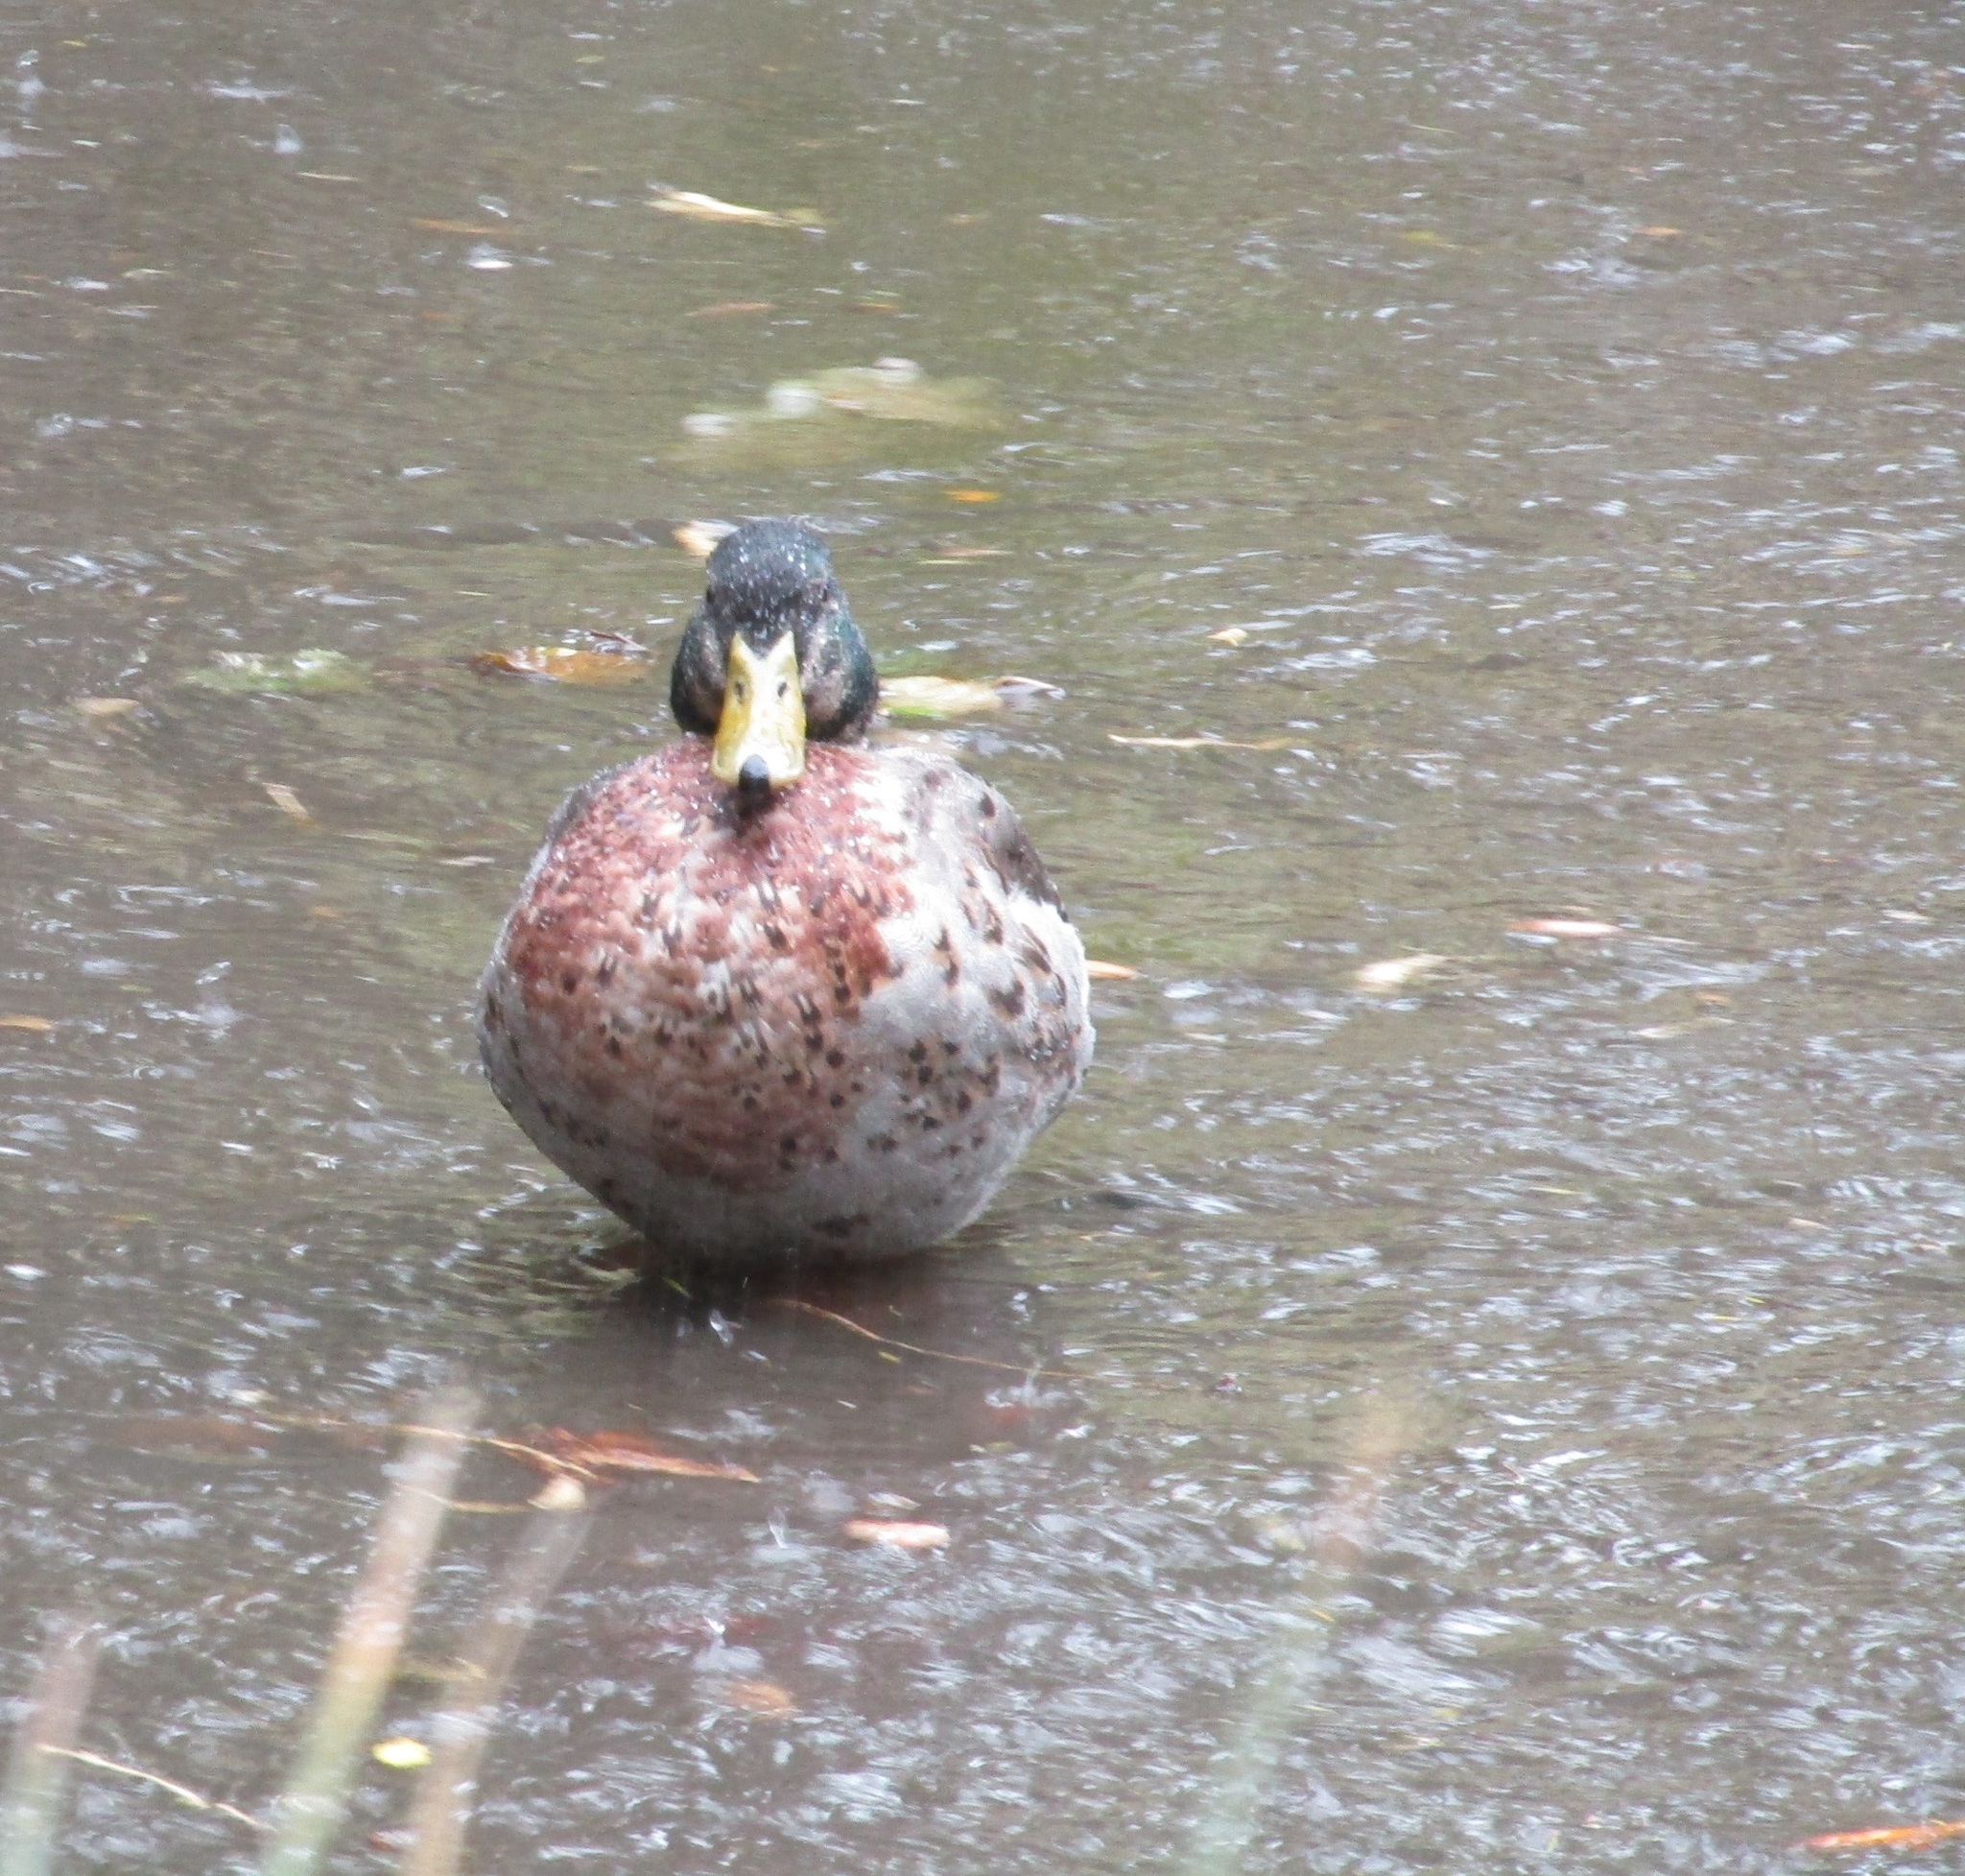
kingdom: Animalia
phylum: Chordata
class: Aves
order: Anseriformes
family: Anatidae
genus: Anas
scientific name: Anas
